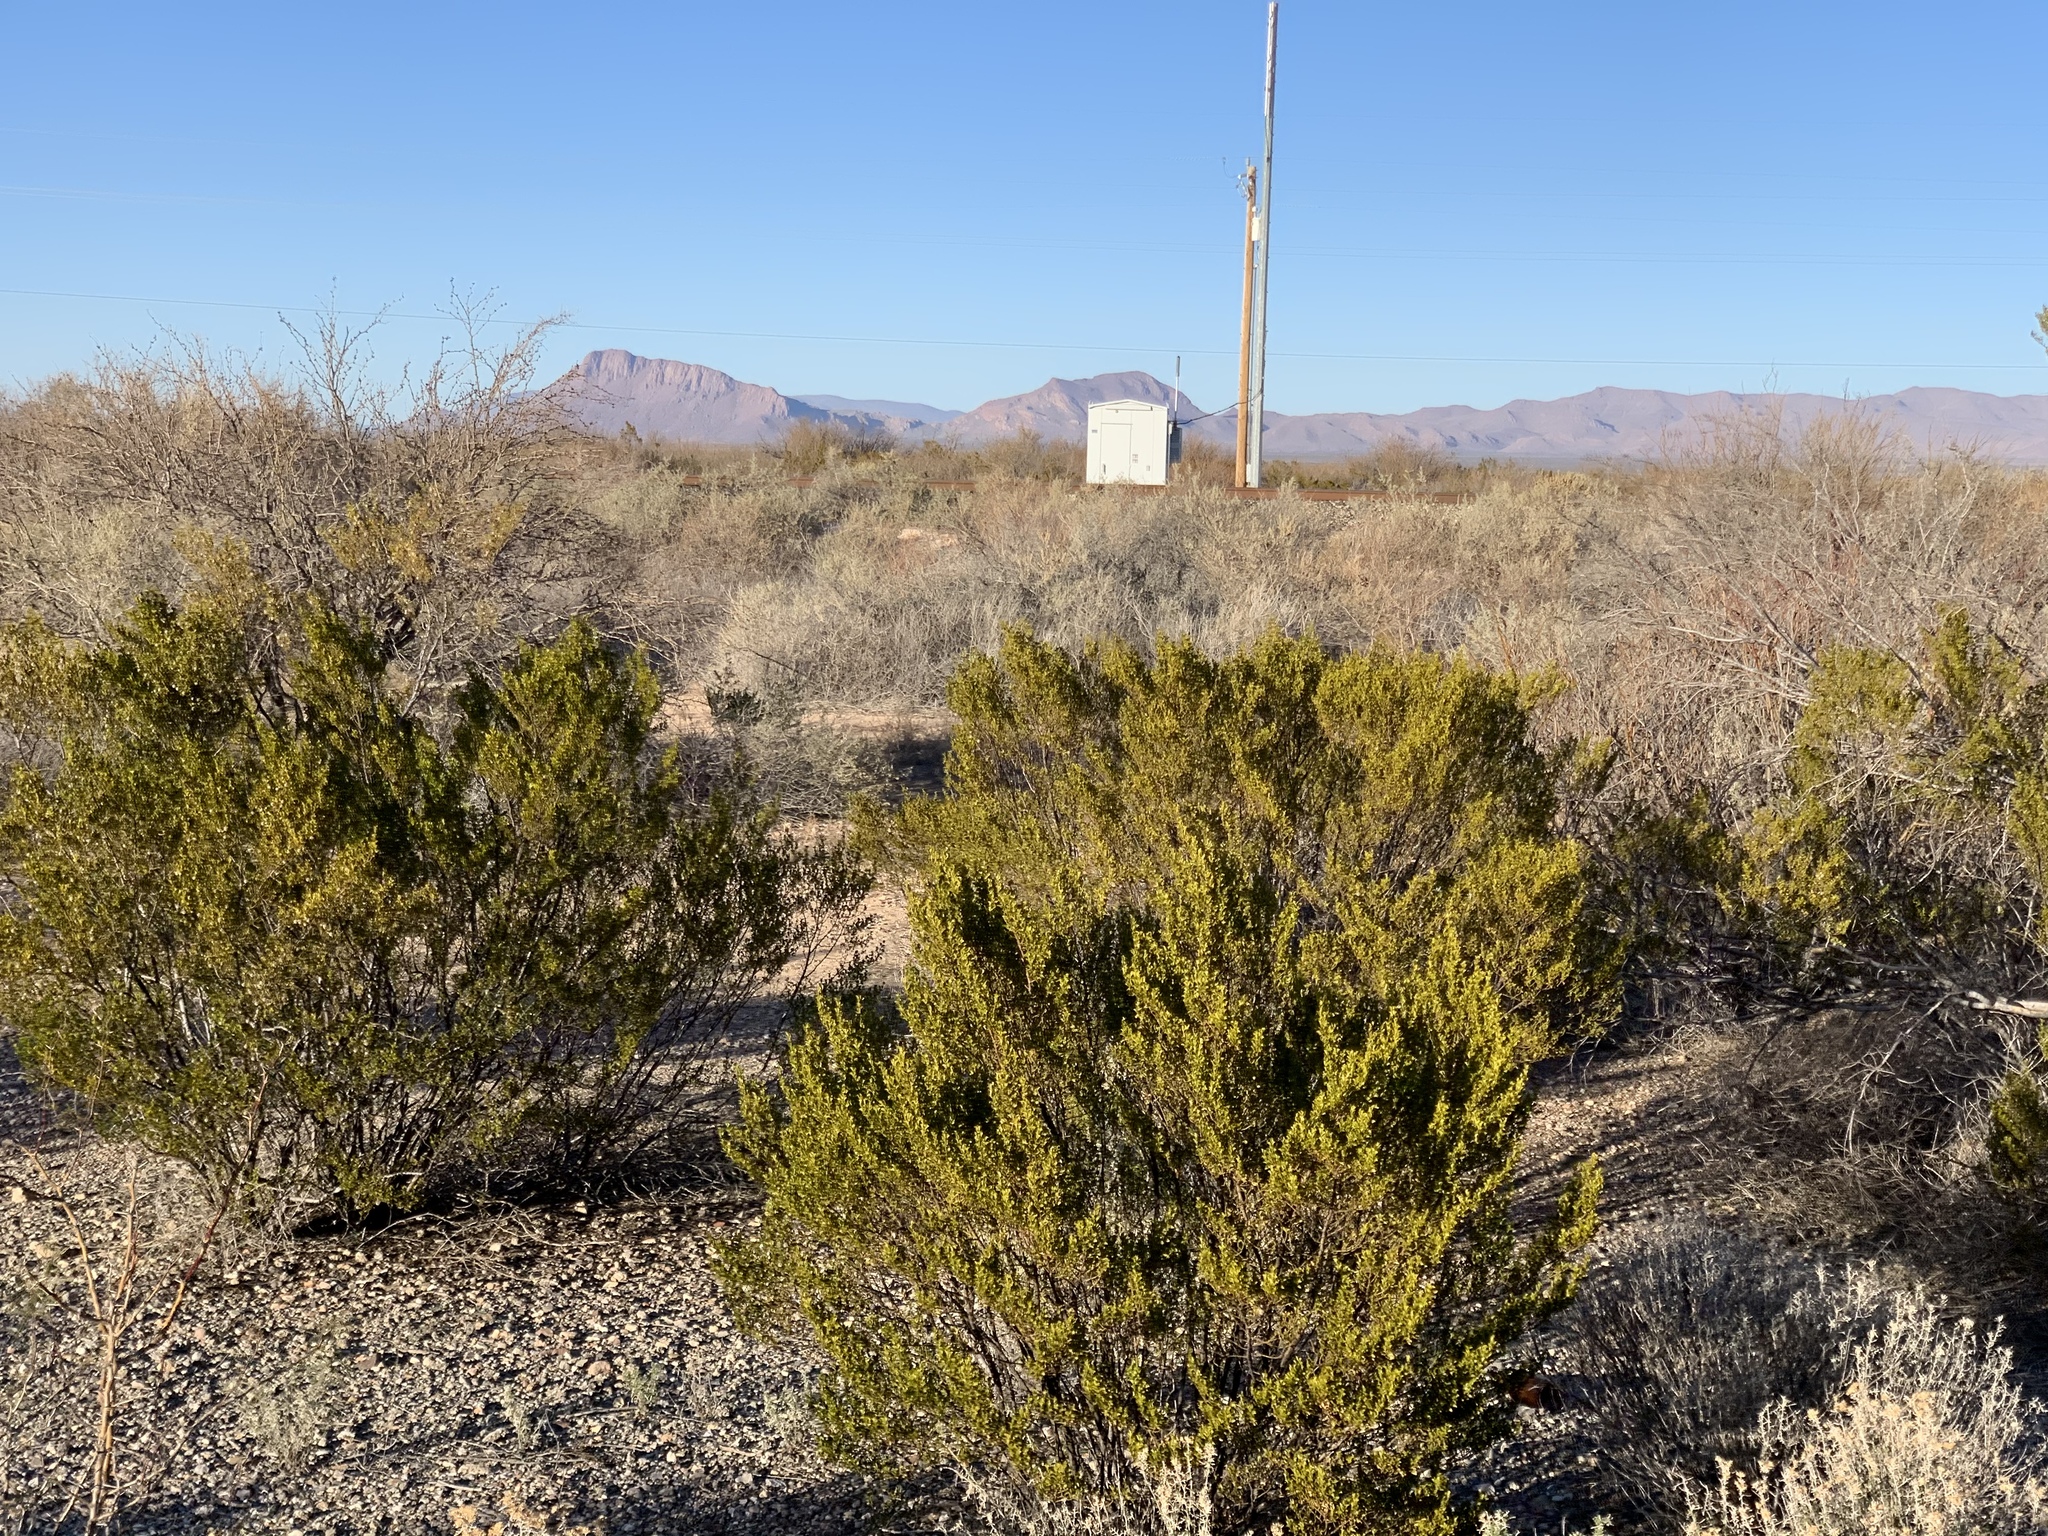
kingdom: Plantae
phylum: Tracheophyta
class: Magnoliopsida
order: Zygophyllales
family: Zygophyllaceae
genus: Larrea
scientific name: Larrea tridentata
